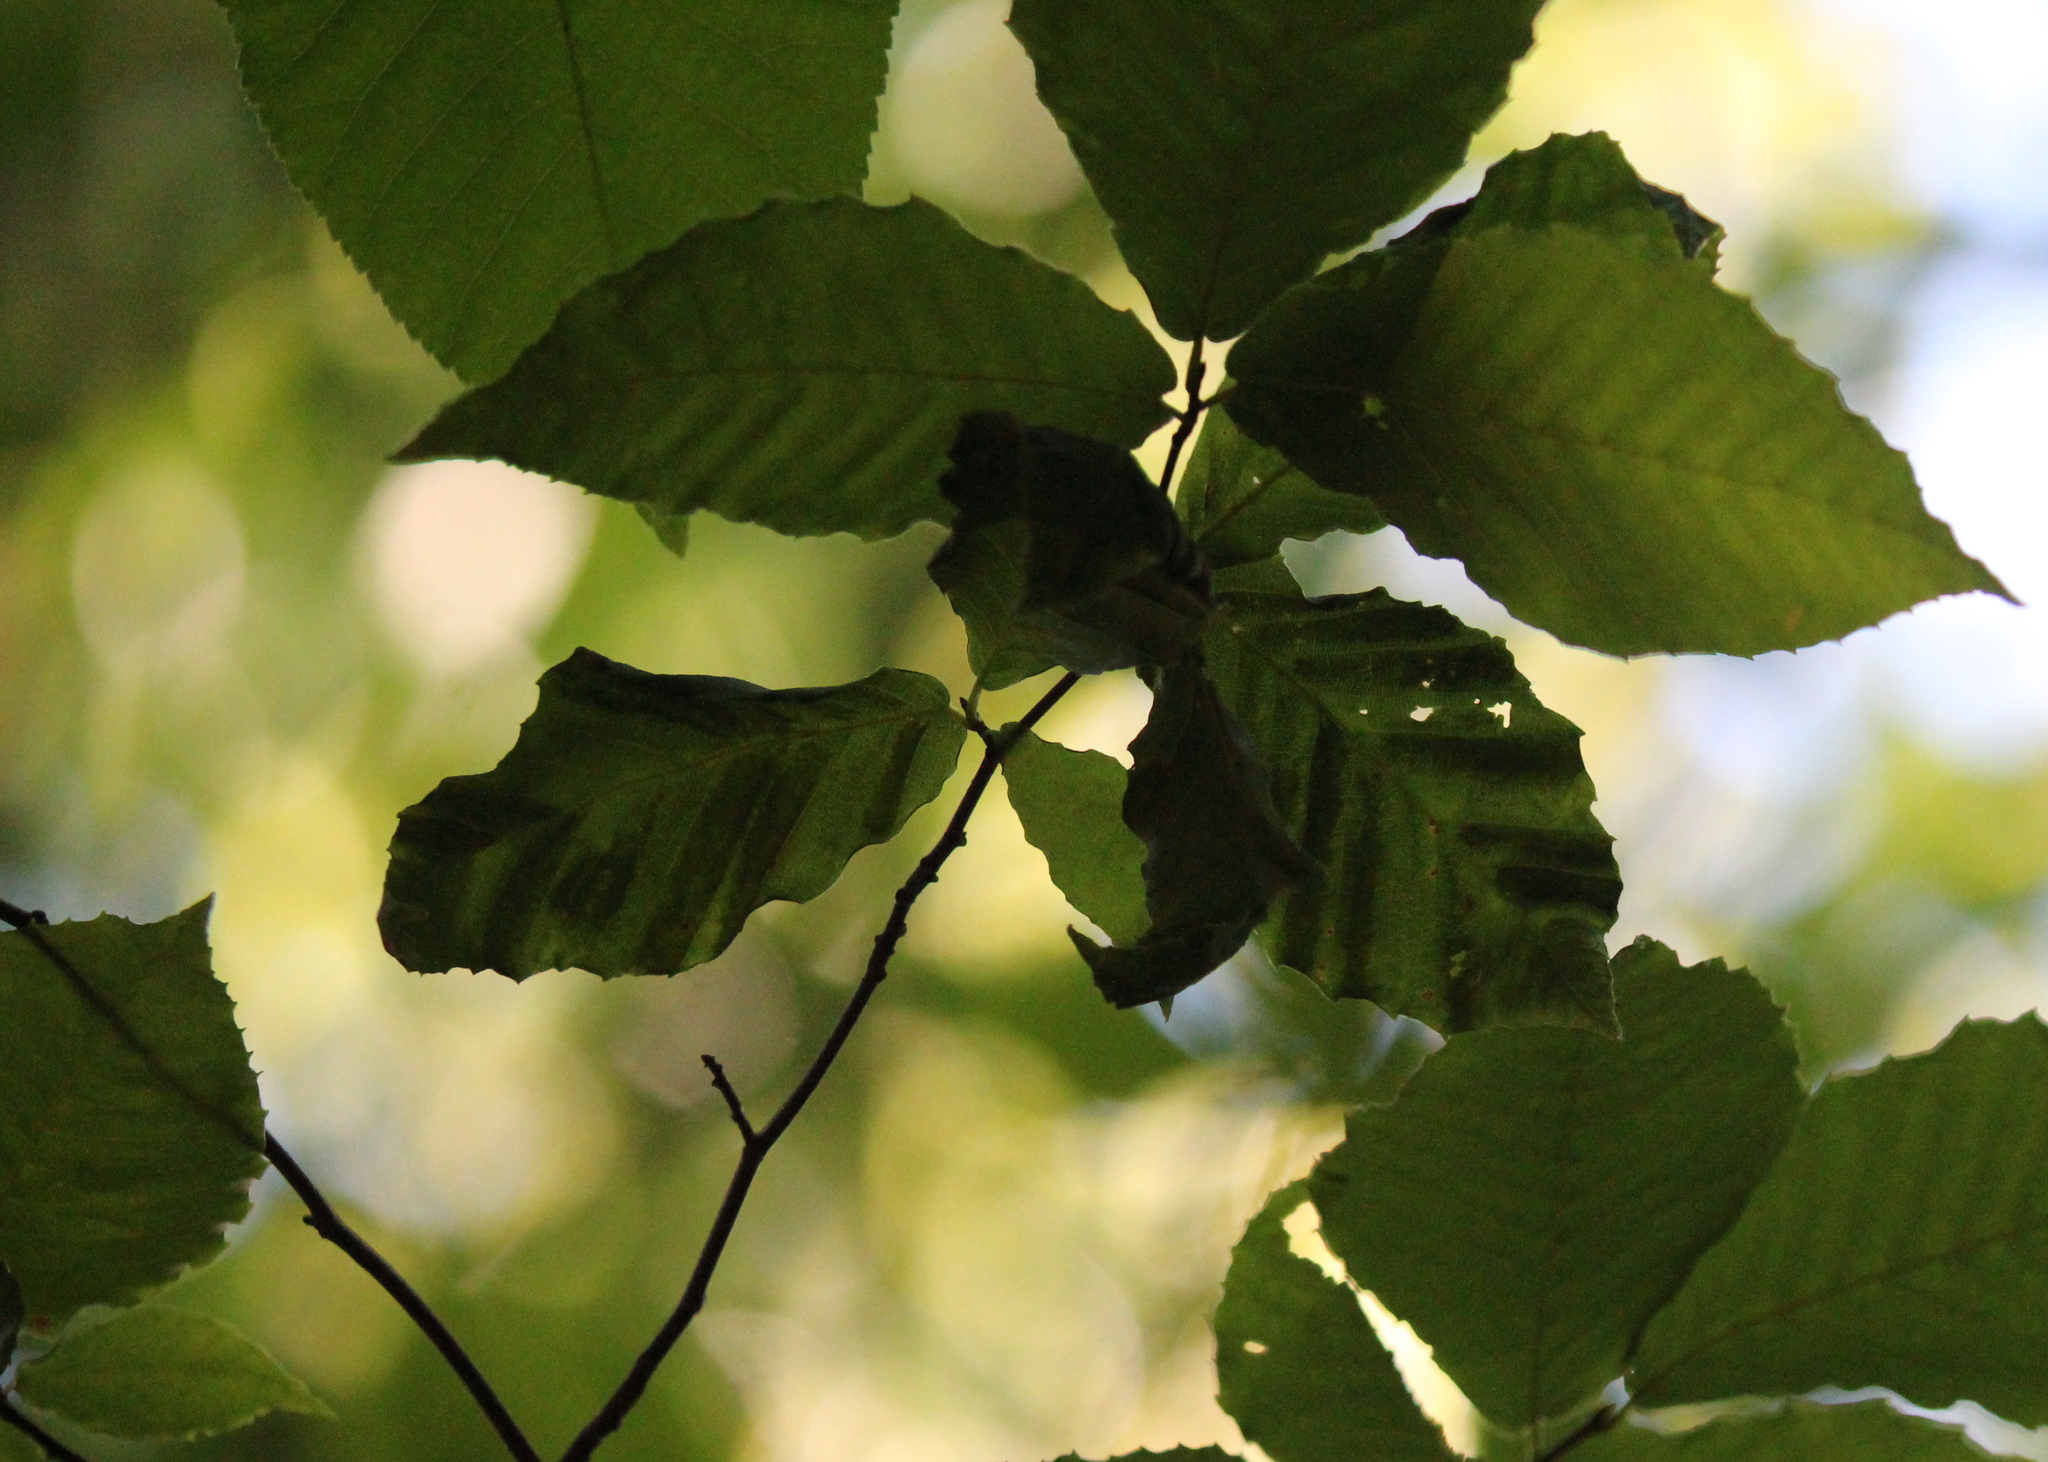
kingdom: Animalia
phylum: Nematoda
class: Chromadorea
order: Rhabditida
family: Anguinidae
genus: Litylenchus
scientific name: Litylenchus crenatae
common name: Beech leaf disease
